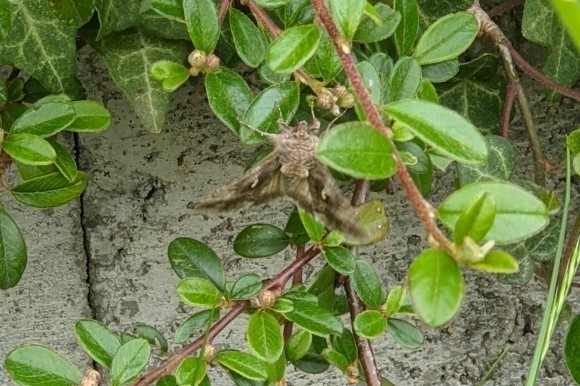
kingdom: Animalia
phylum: Arthropoda
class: Insecta
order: Lepidoptera
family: Noctuidae
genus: Autographa
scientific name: Autographa gamma
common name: Silver y
